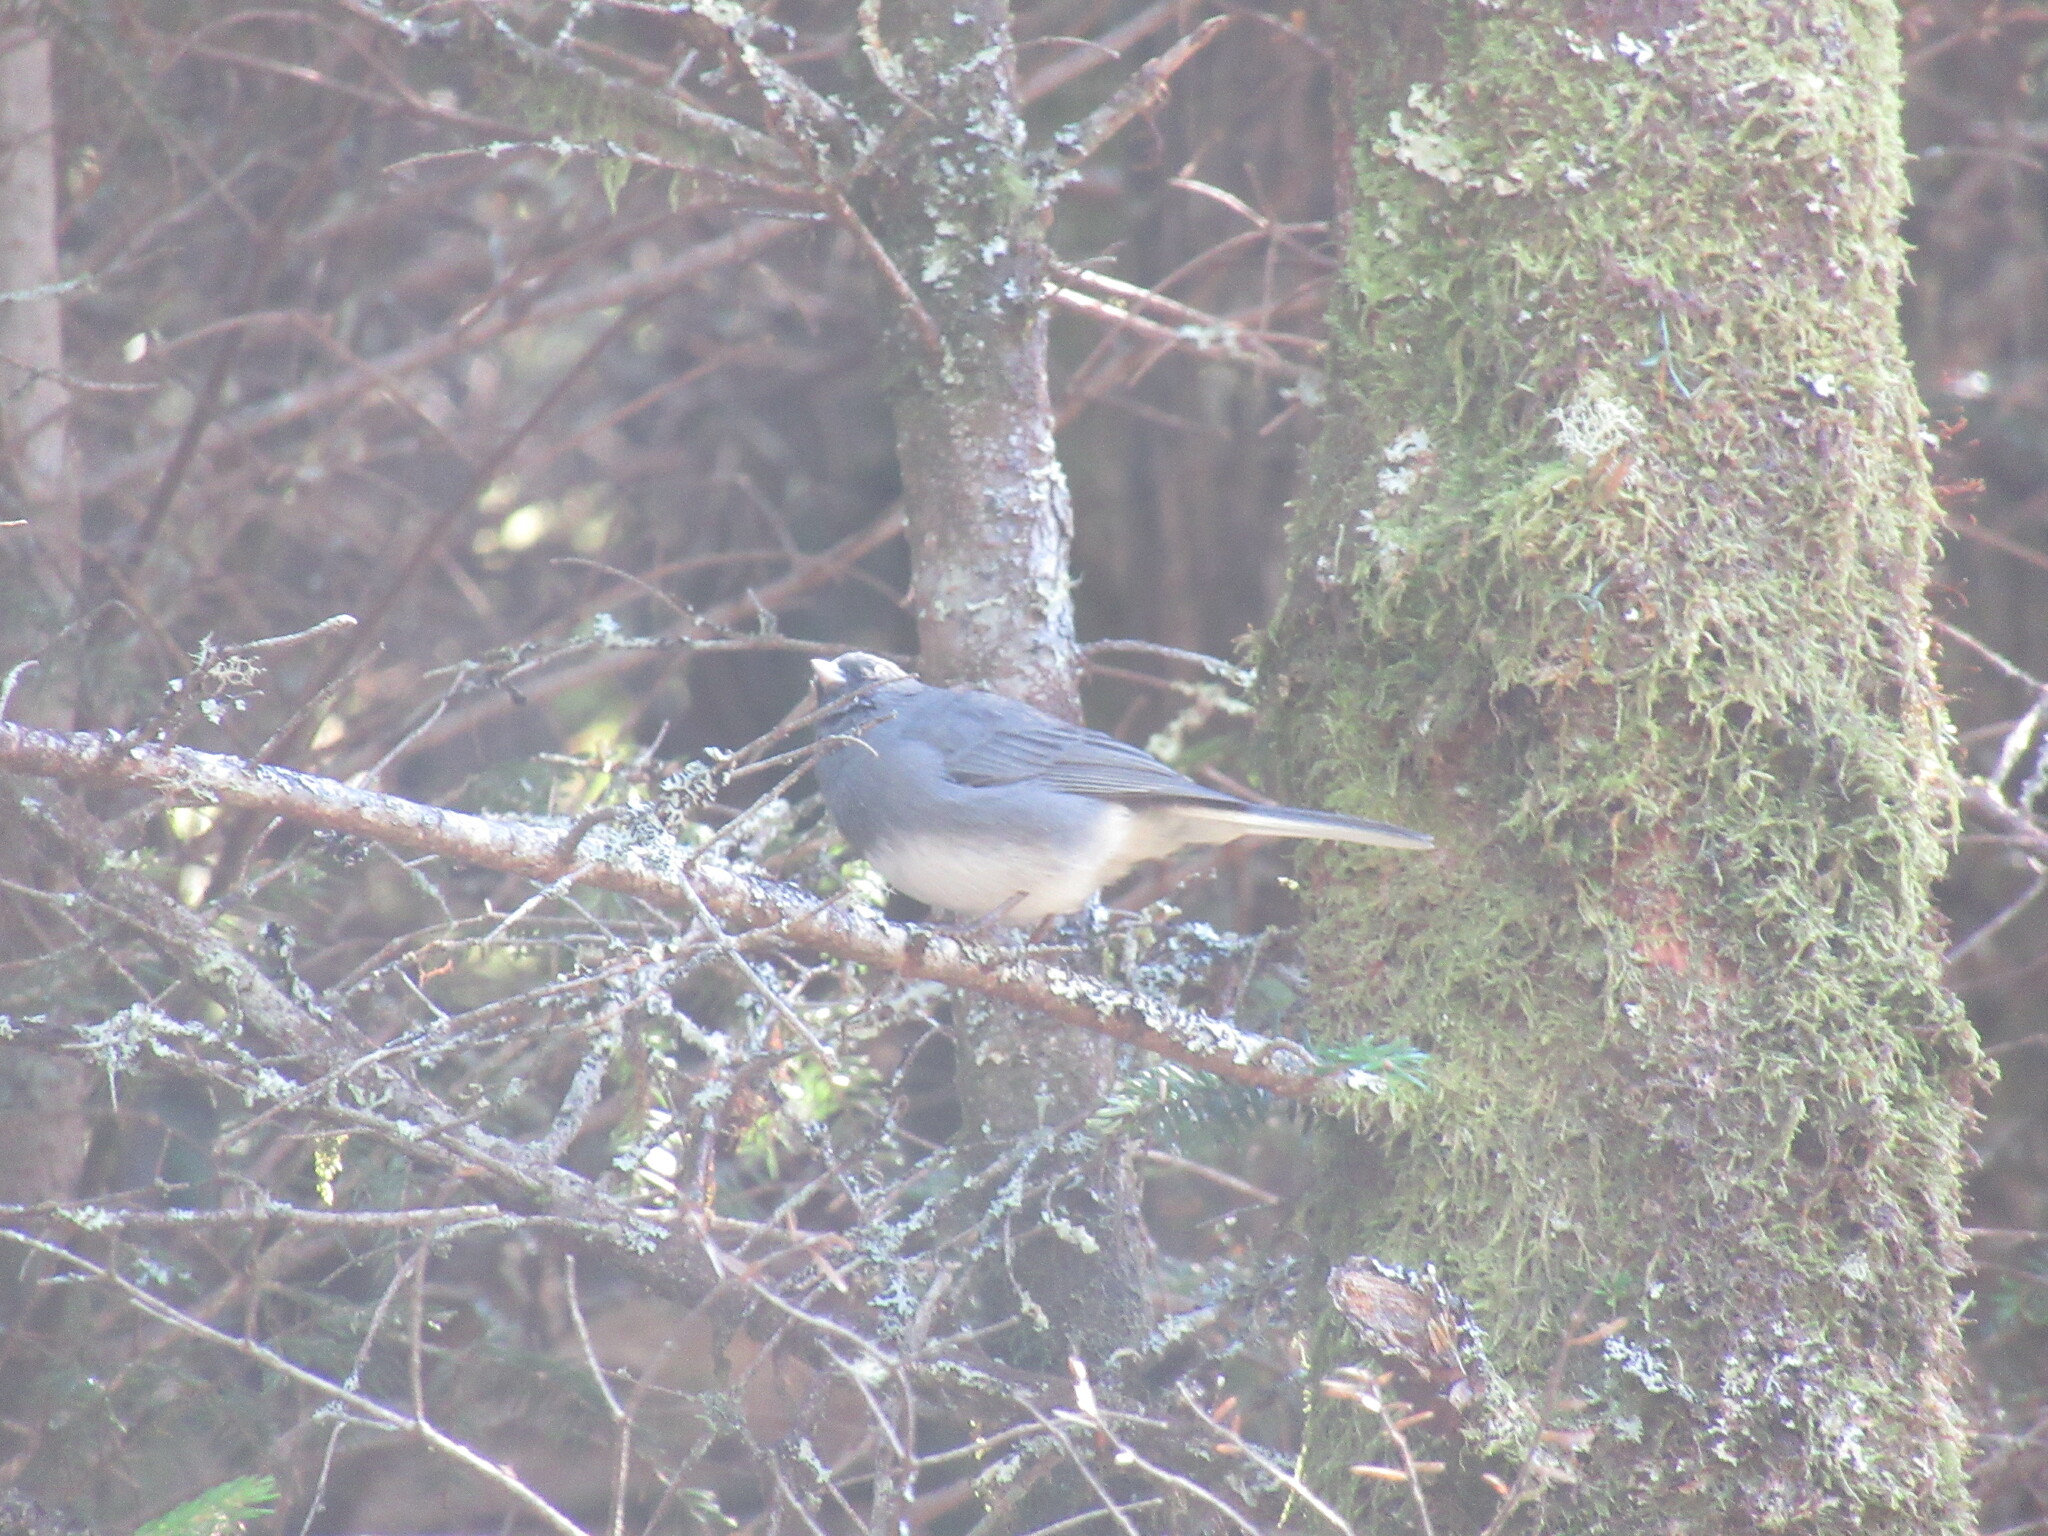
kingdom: Animalia
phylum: Chordata
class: Aves
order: Passeriformes
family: Passerellidae
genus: Junco
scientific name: Junco hyemalis
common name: Dark-eyed junco
